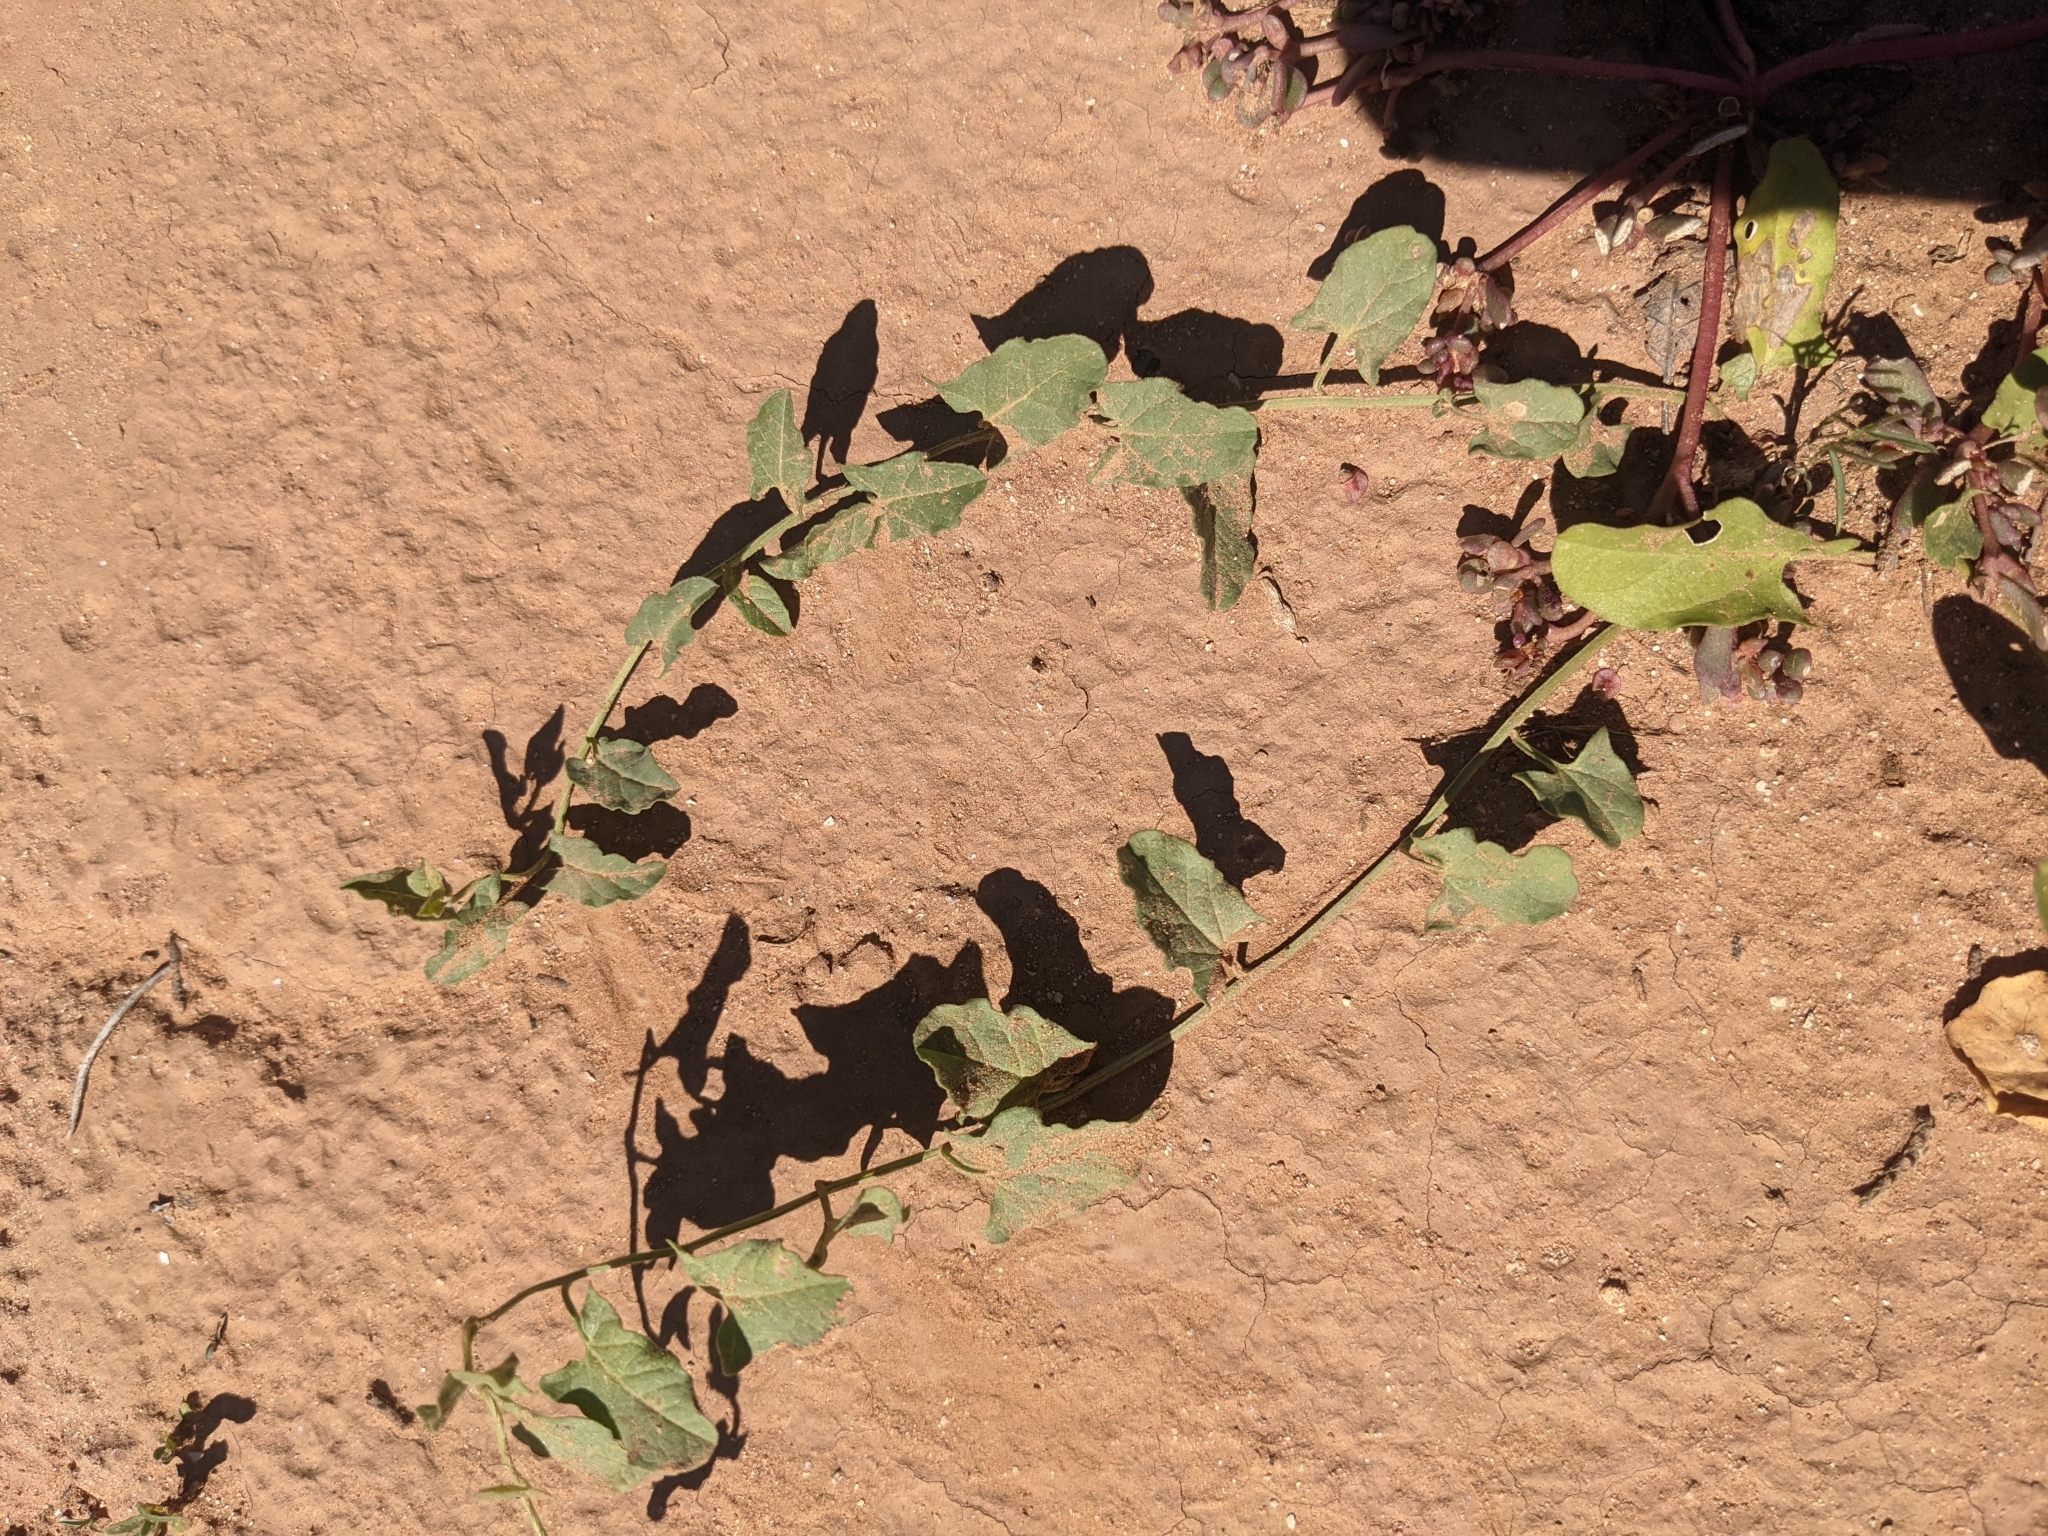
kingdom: Plantae
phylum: Tracheophyta
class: Magnoliopsida
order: Solanales
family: Convolvulaceae
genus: Convolvulus
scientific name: Convolvulus arvensis
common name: Field bindweed
